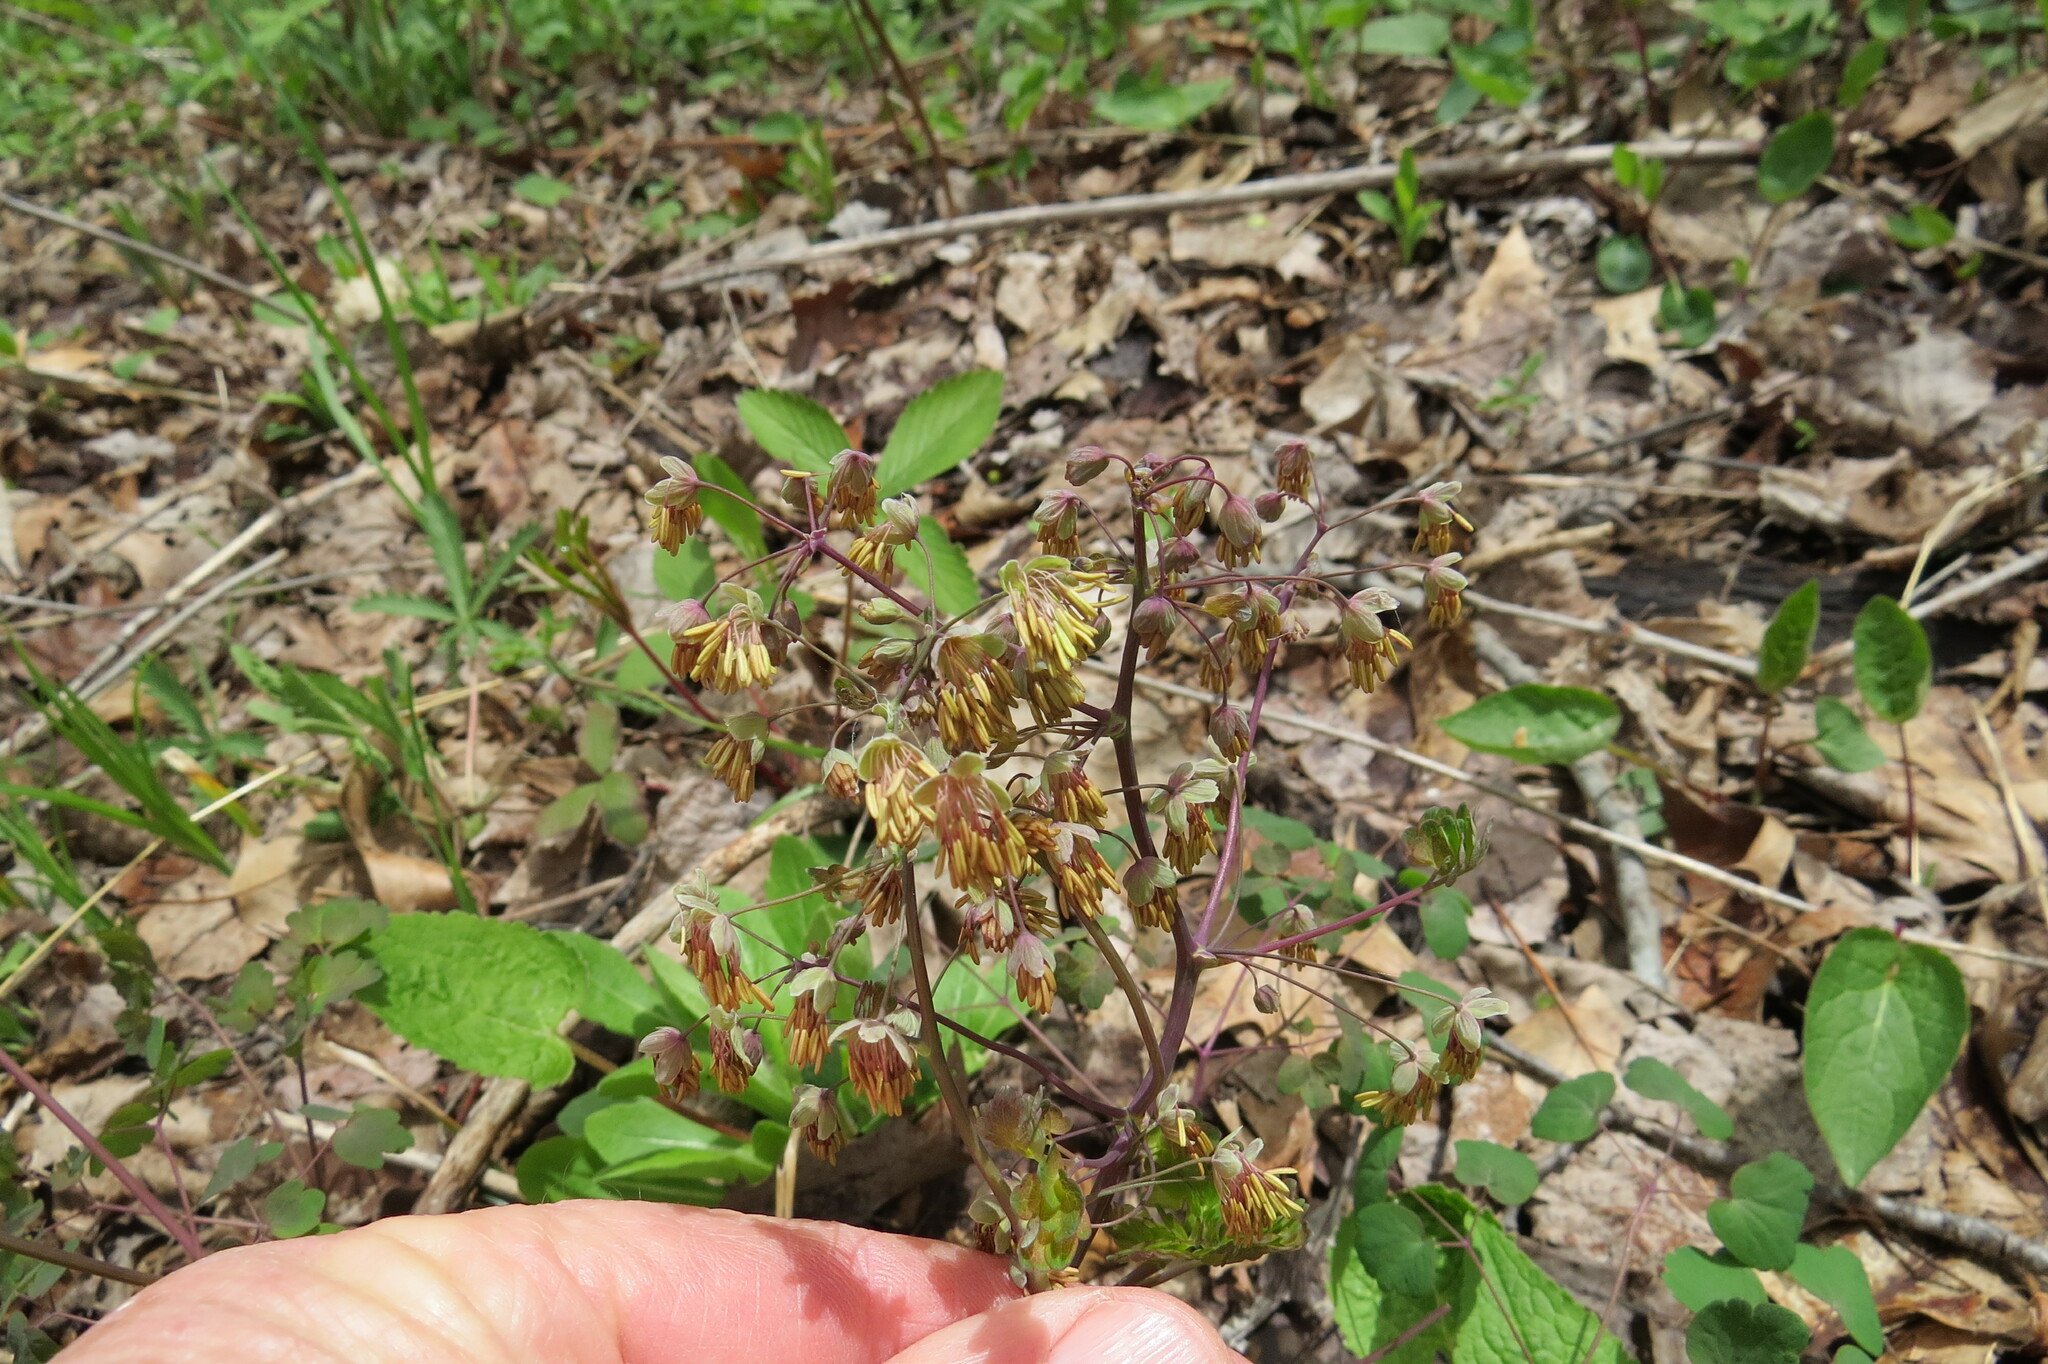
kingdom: Plantae
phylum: Tracheophyta
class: Magnoliopsida
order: Ranunculales
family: Ranunculaceae
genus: Thalictrum
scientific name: Thalictrum dioicum
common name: Early meadow-rue
